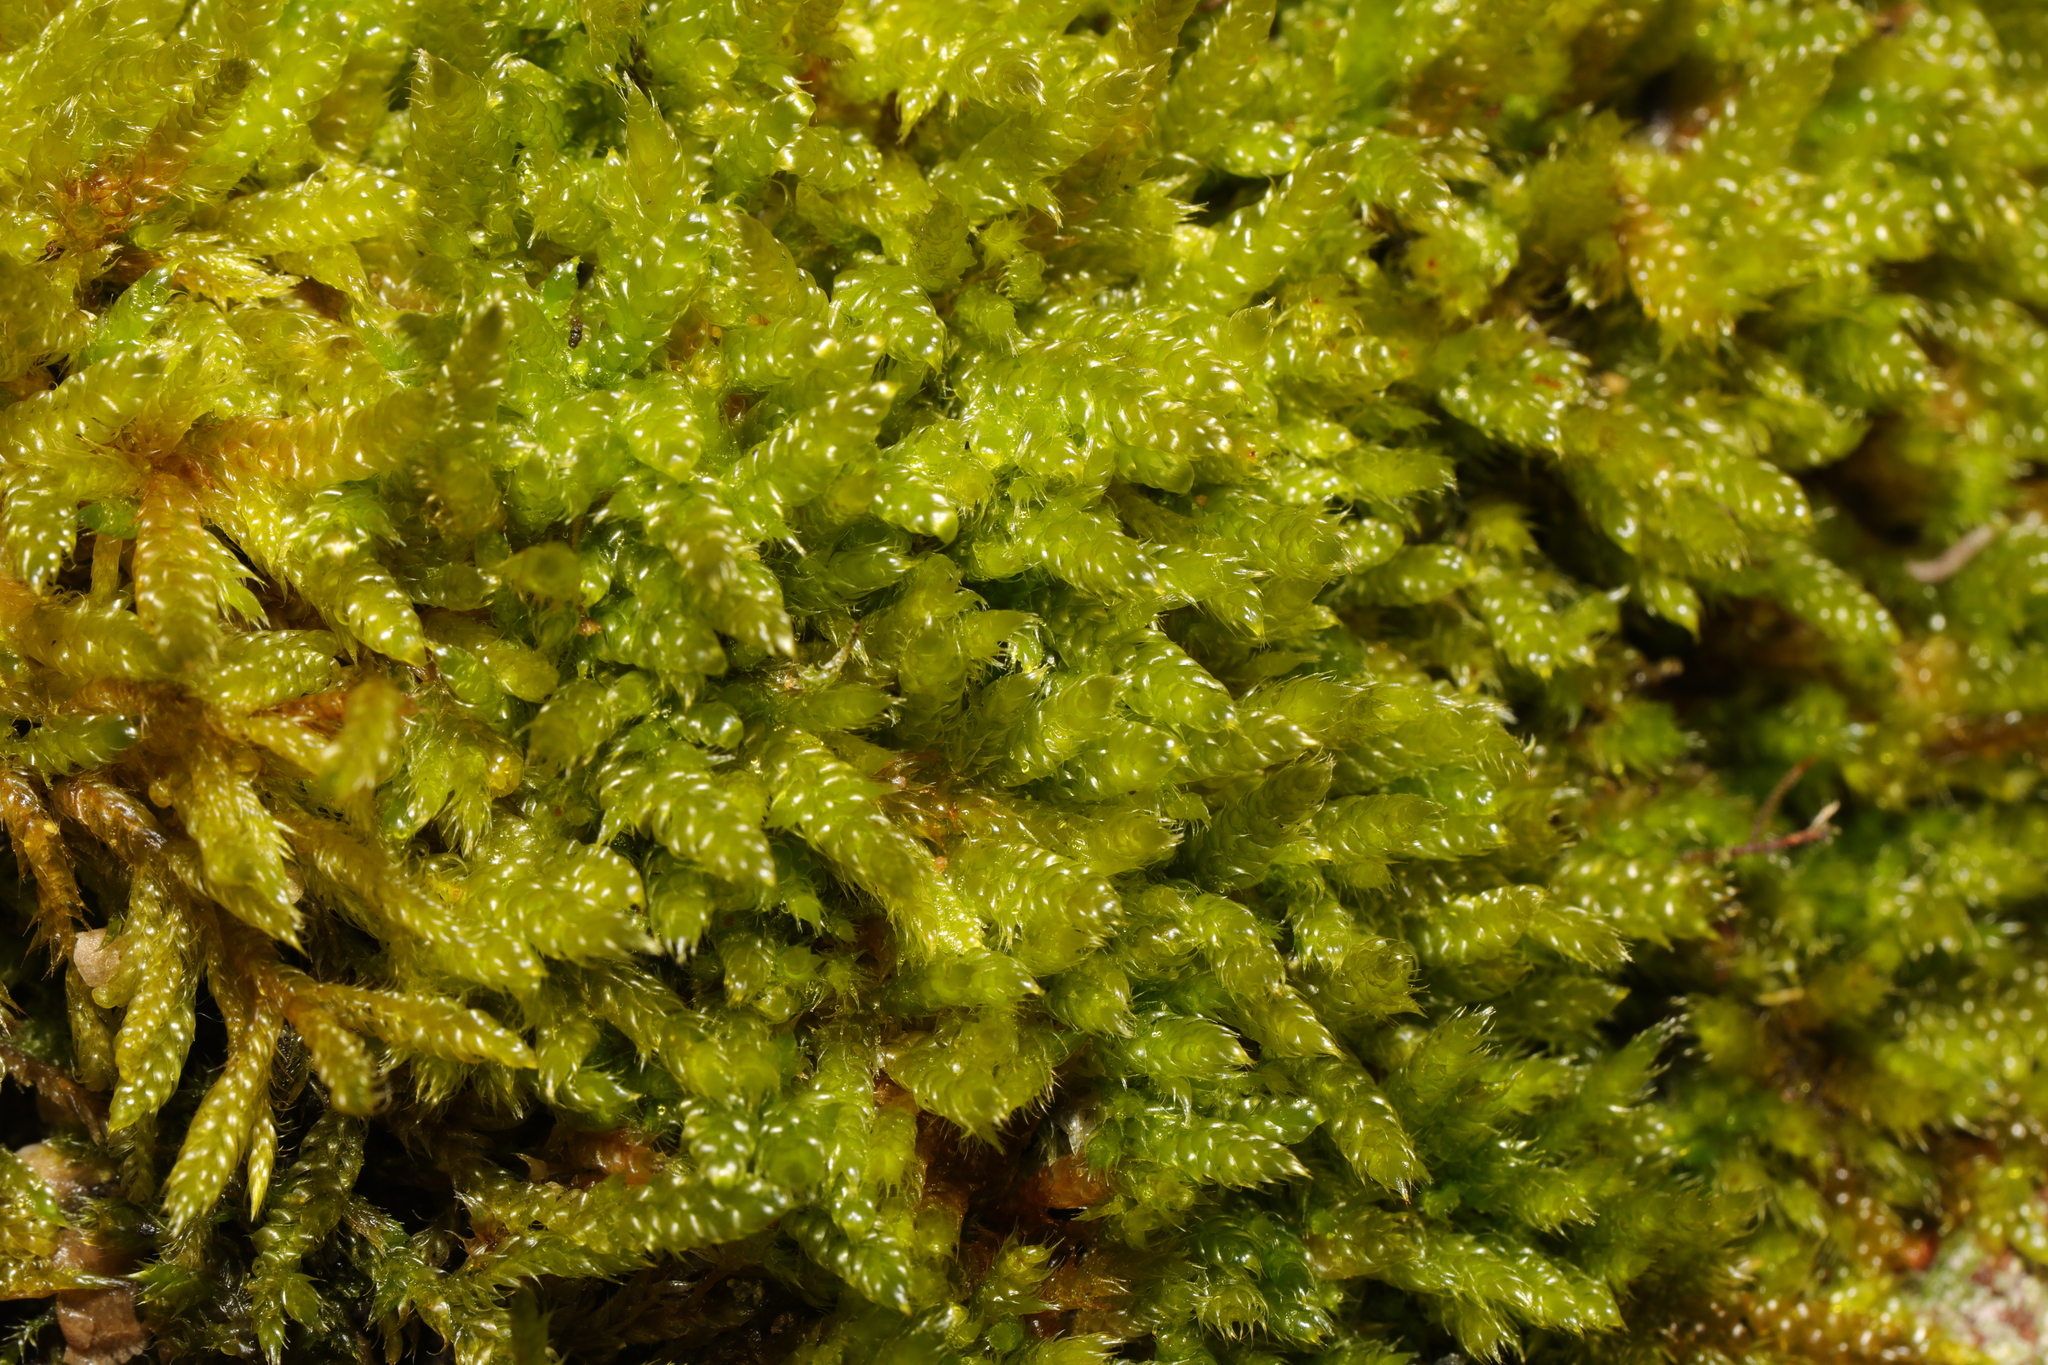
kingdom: Plantae
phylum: Bryophyta
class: Bryopsida
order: Hypnales
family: Hypnaceae
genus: Hypnum
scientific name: Hypnum cupressiforme
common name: Cypress-leaved plait-moss
